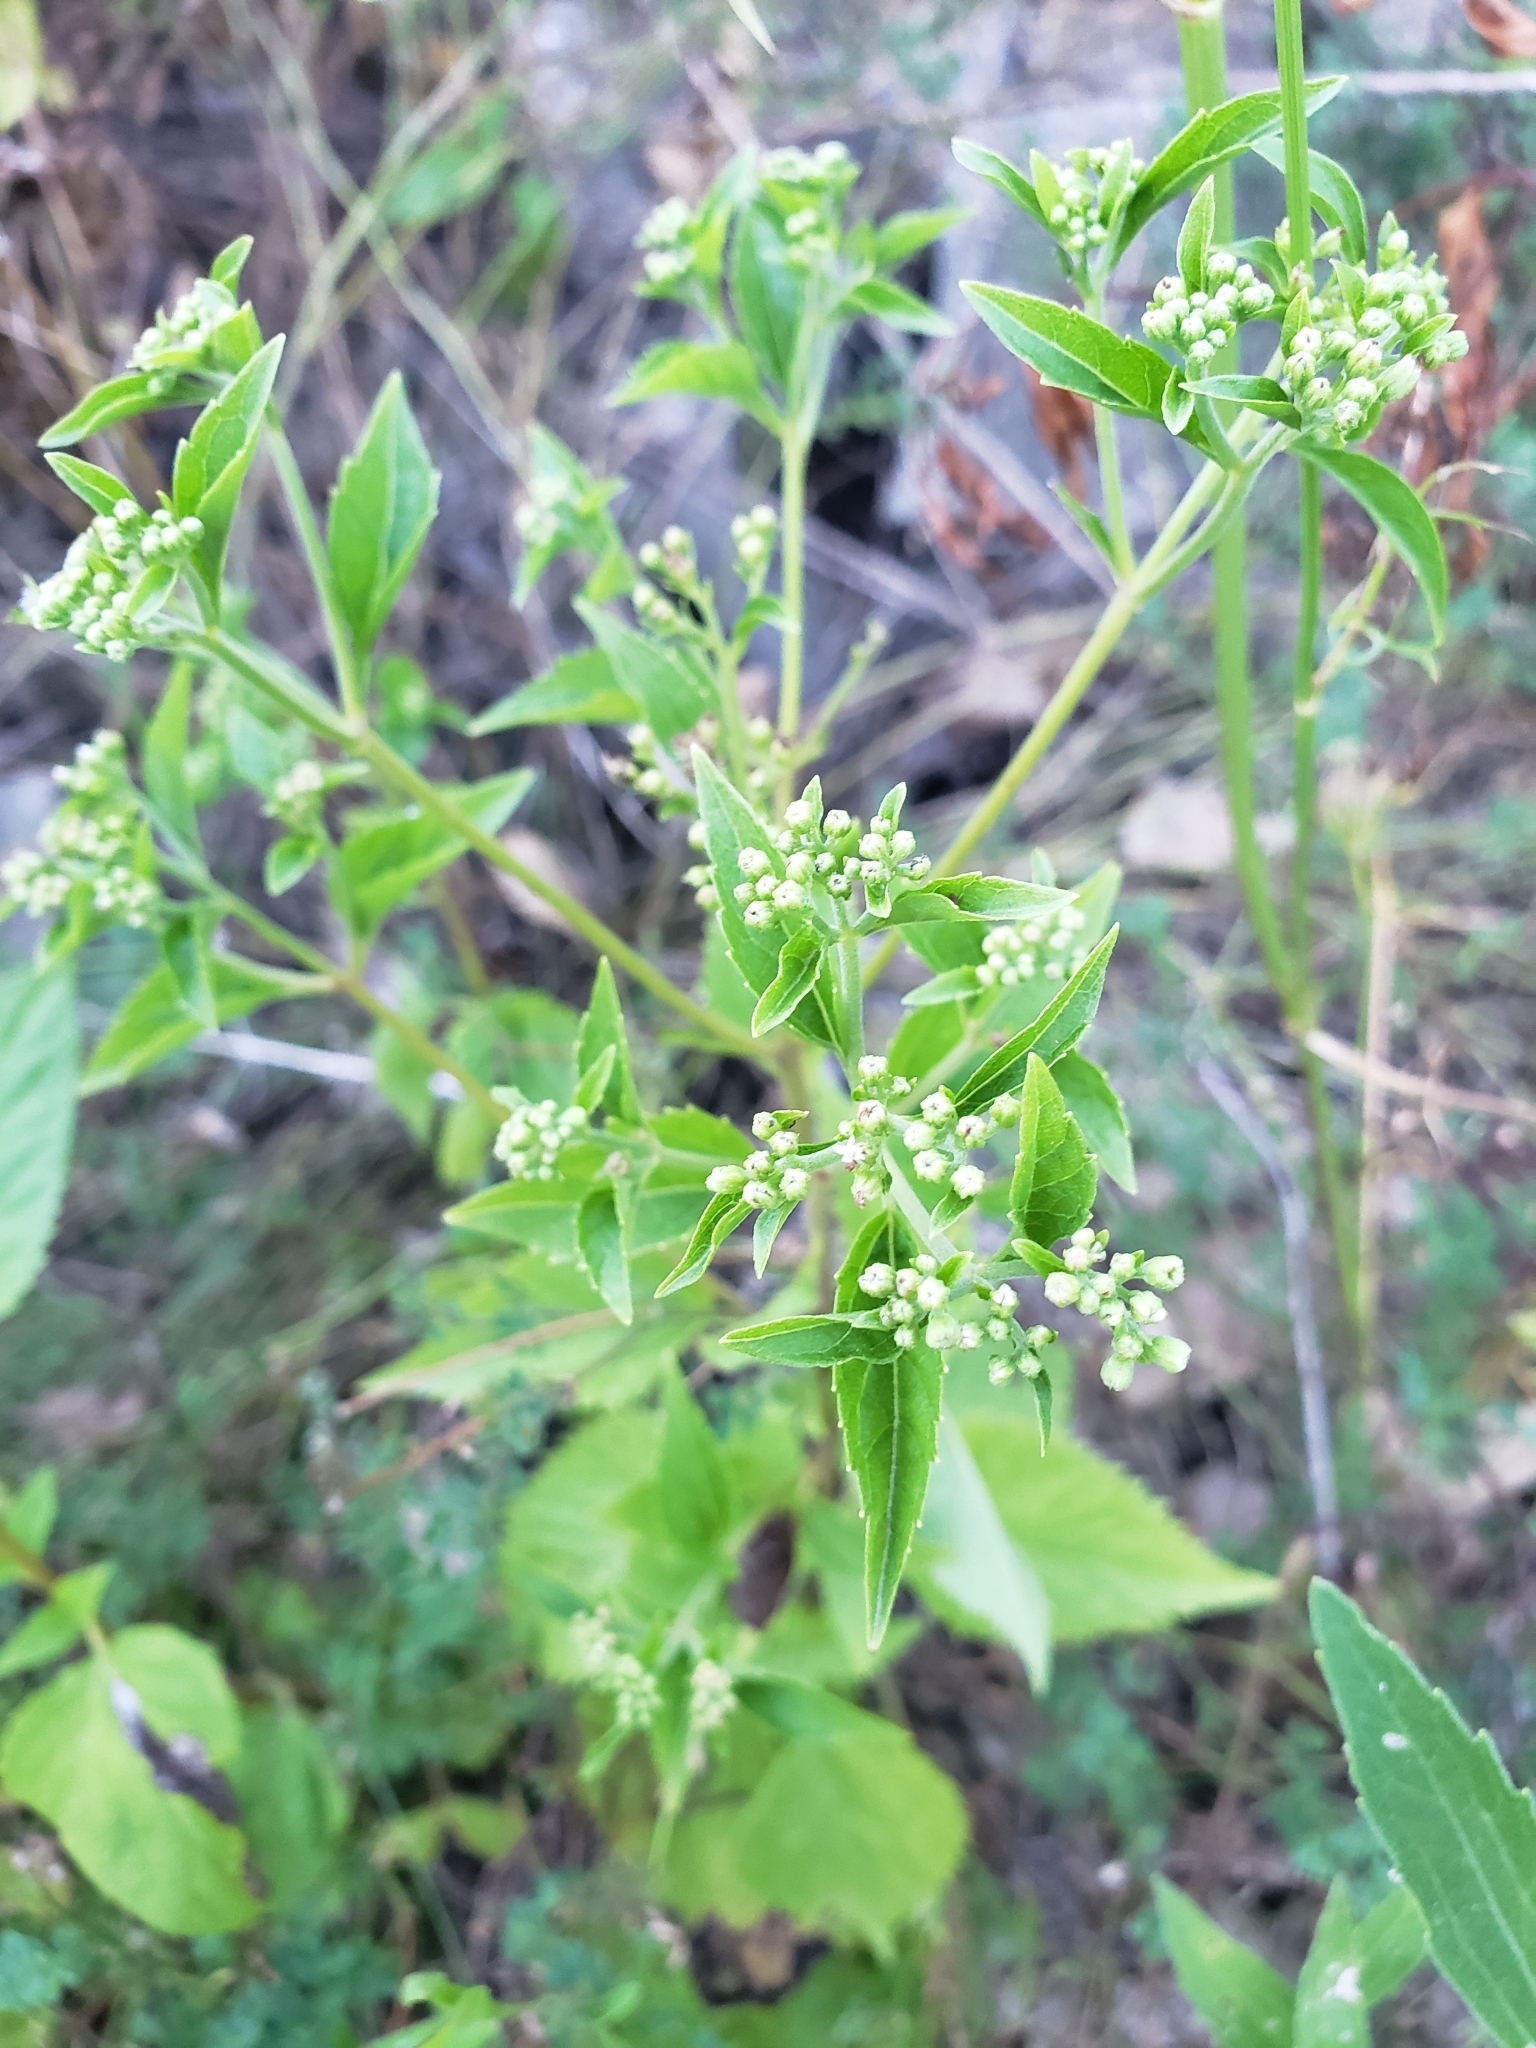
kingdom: Plantae
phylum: Tracheophyta
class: Magnoliopsida
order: Asterales
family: Asteraceae
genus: Eupatorium
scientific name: Eupatorium serotinum
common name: Late boneset
